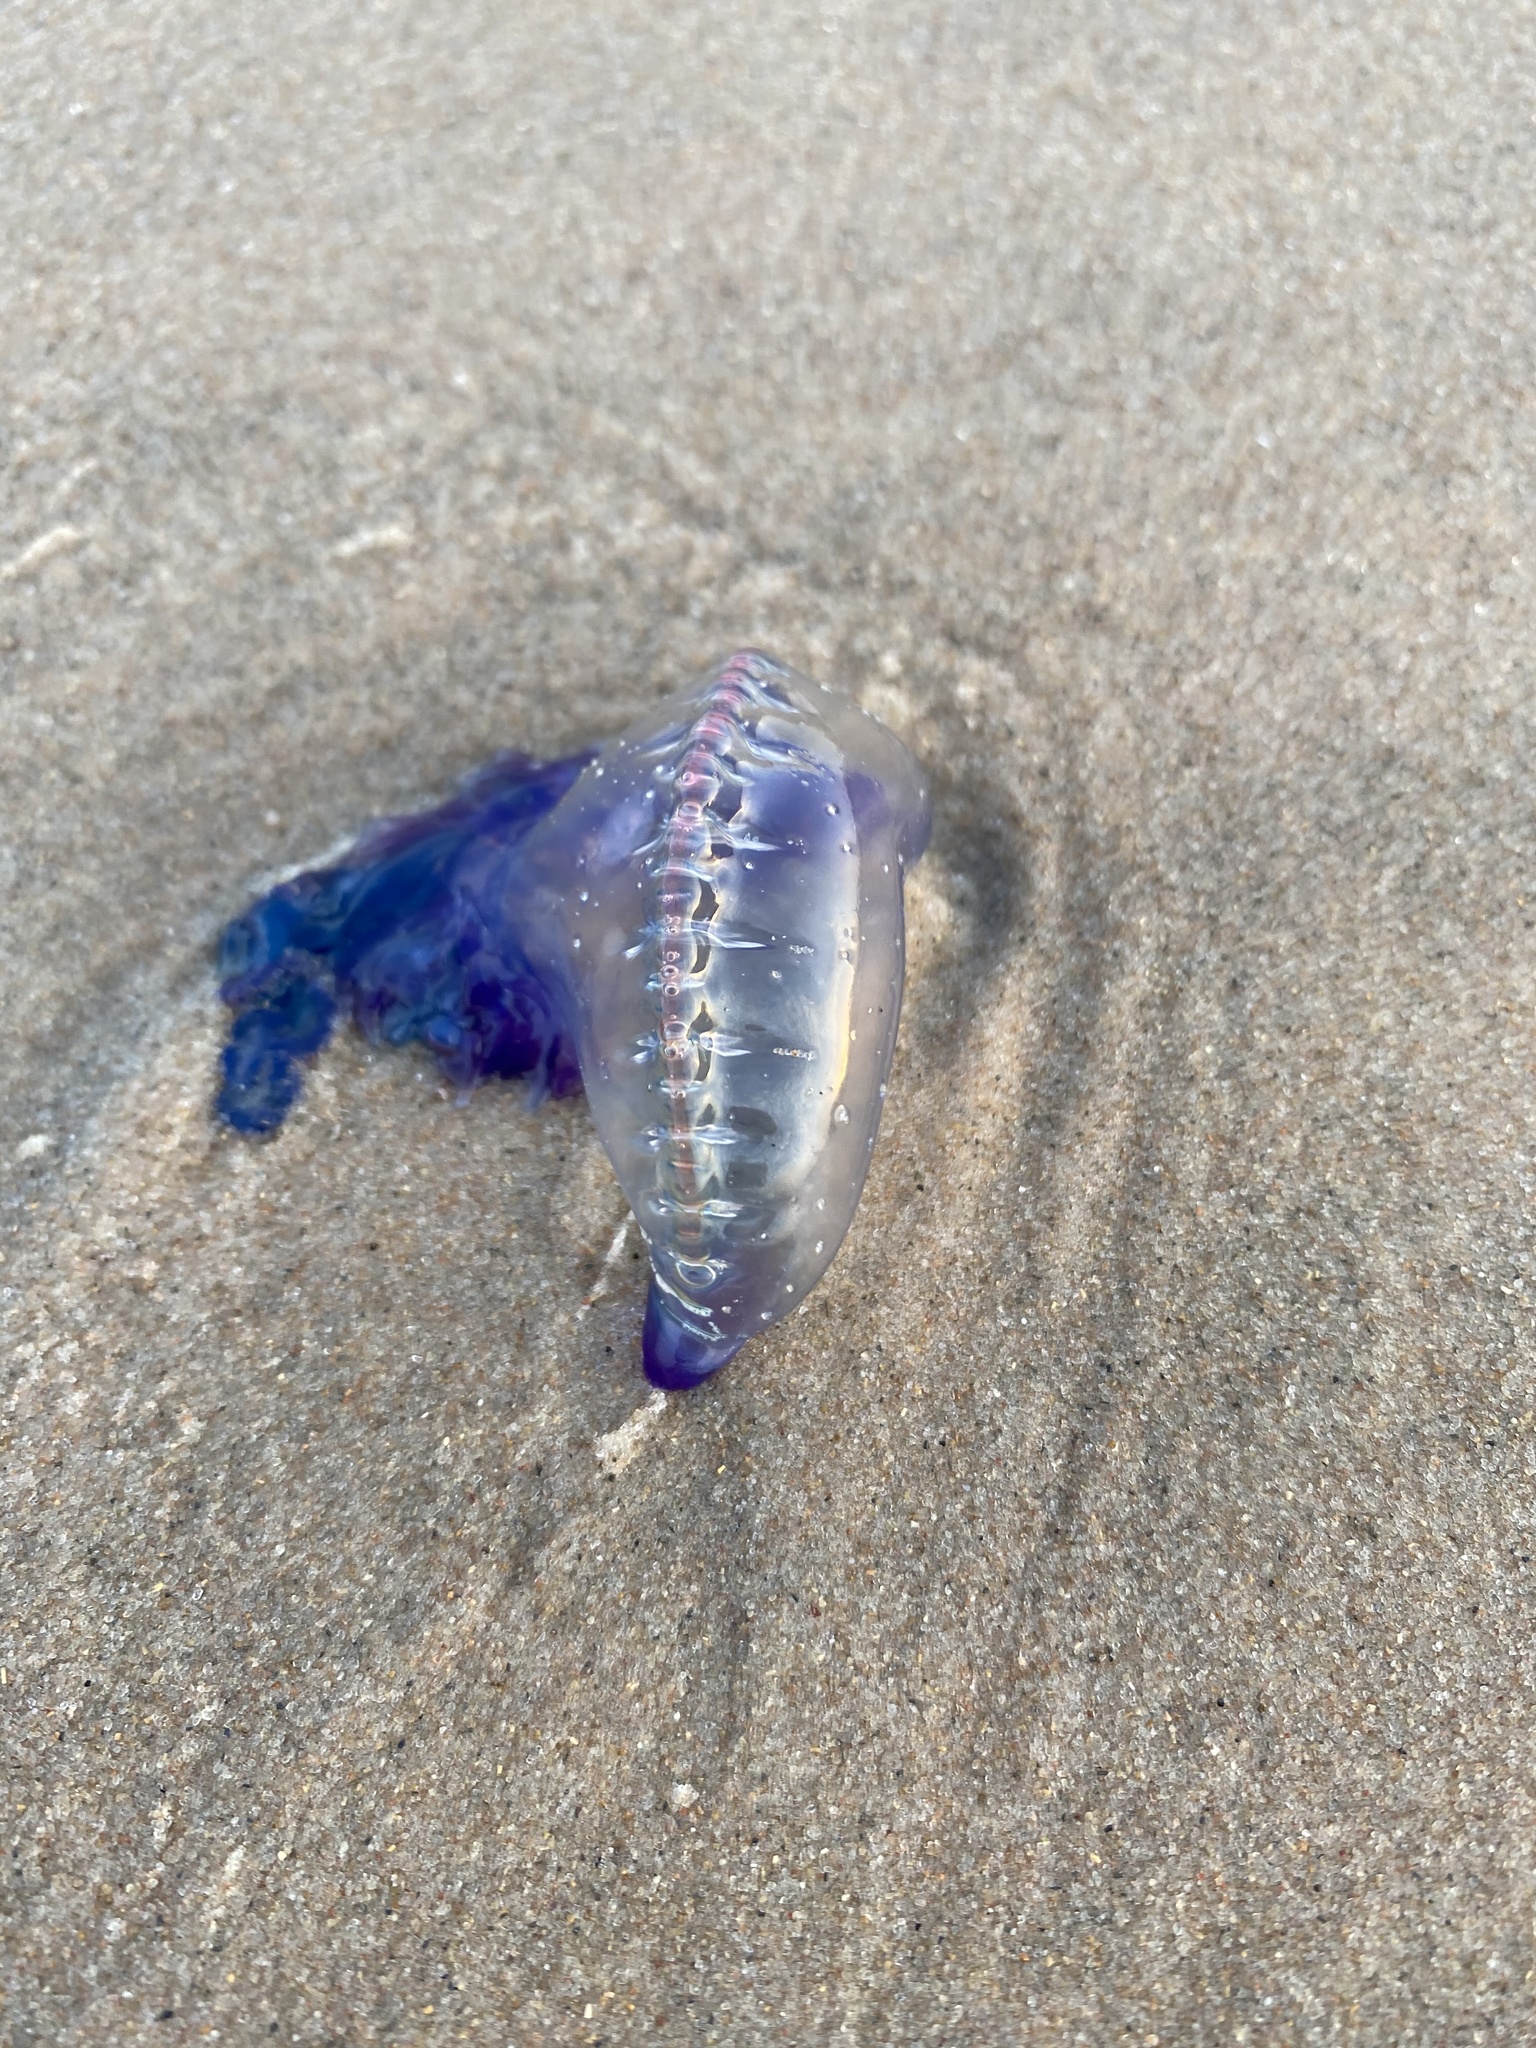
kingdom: Animalia
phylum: Cnidaria
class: Hydrozoa
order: Siphonophorae
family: Physaliidae
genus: Physalia
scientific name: Physalia physalis
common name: Portuguese man-of-war
